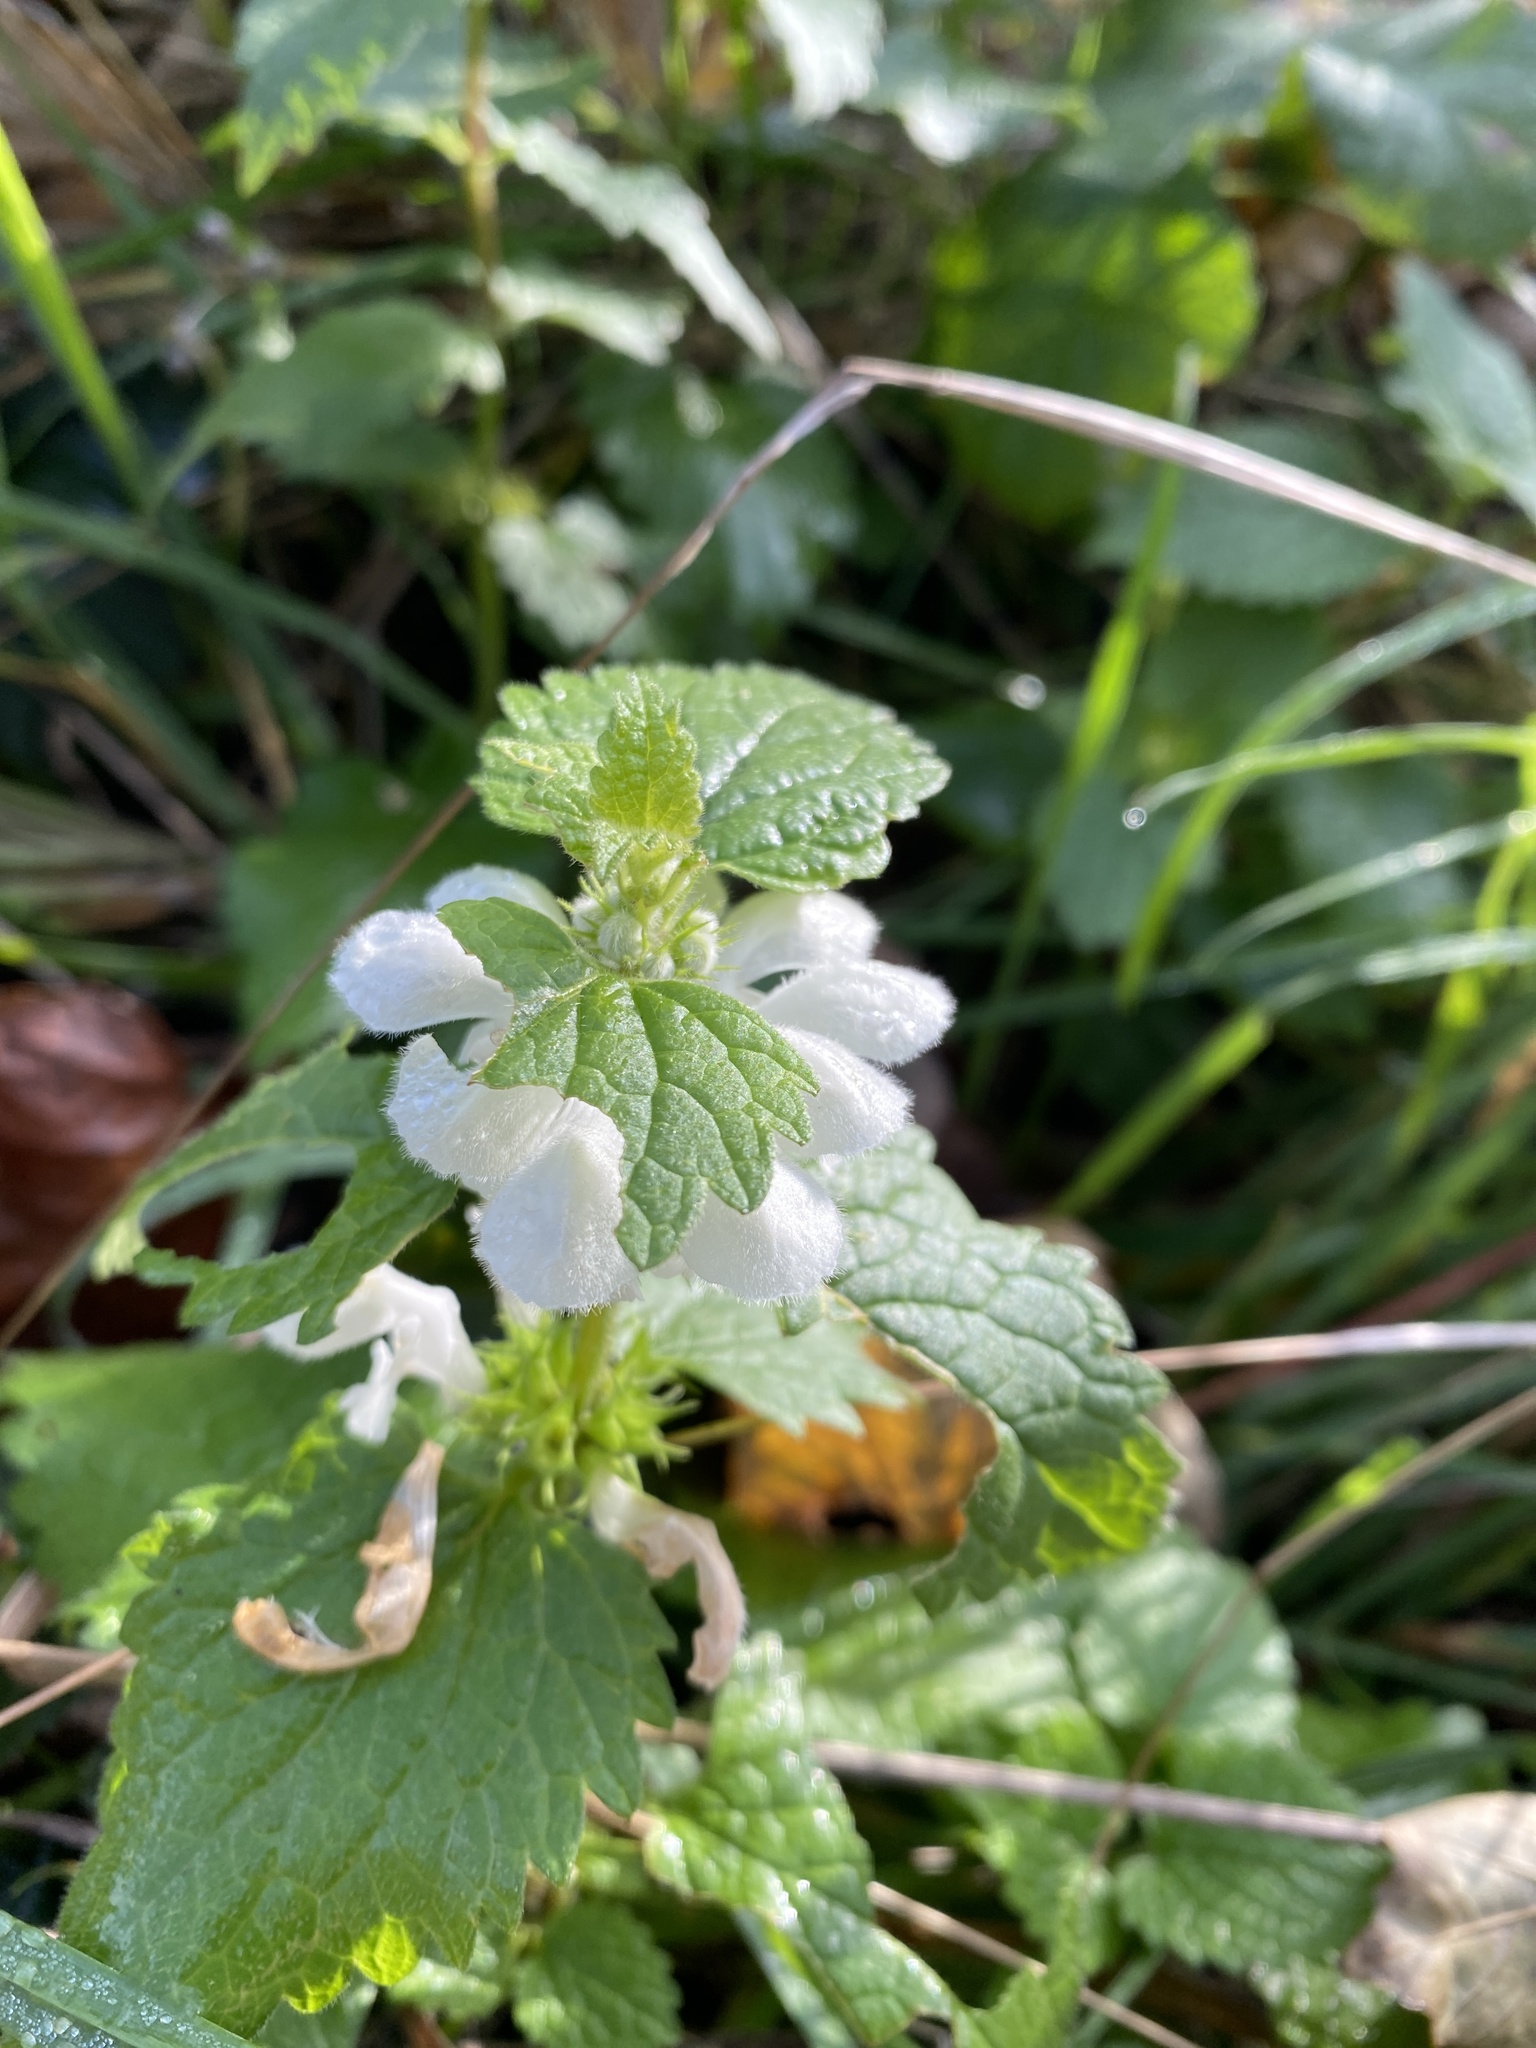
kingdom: Plantae
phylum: Tracheophyta
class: Magnoliopsida
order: Lamiales
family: Lamiaceae
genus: Lamium
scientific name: Lamium album
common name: White dead-nettle
